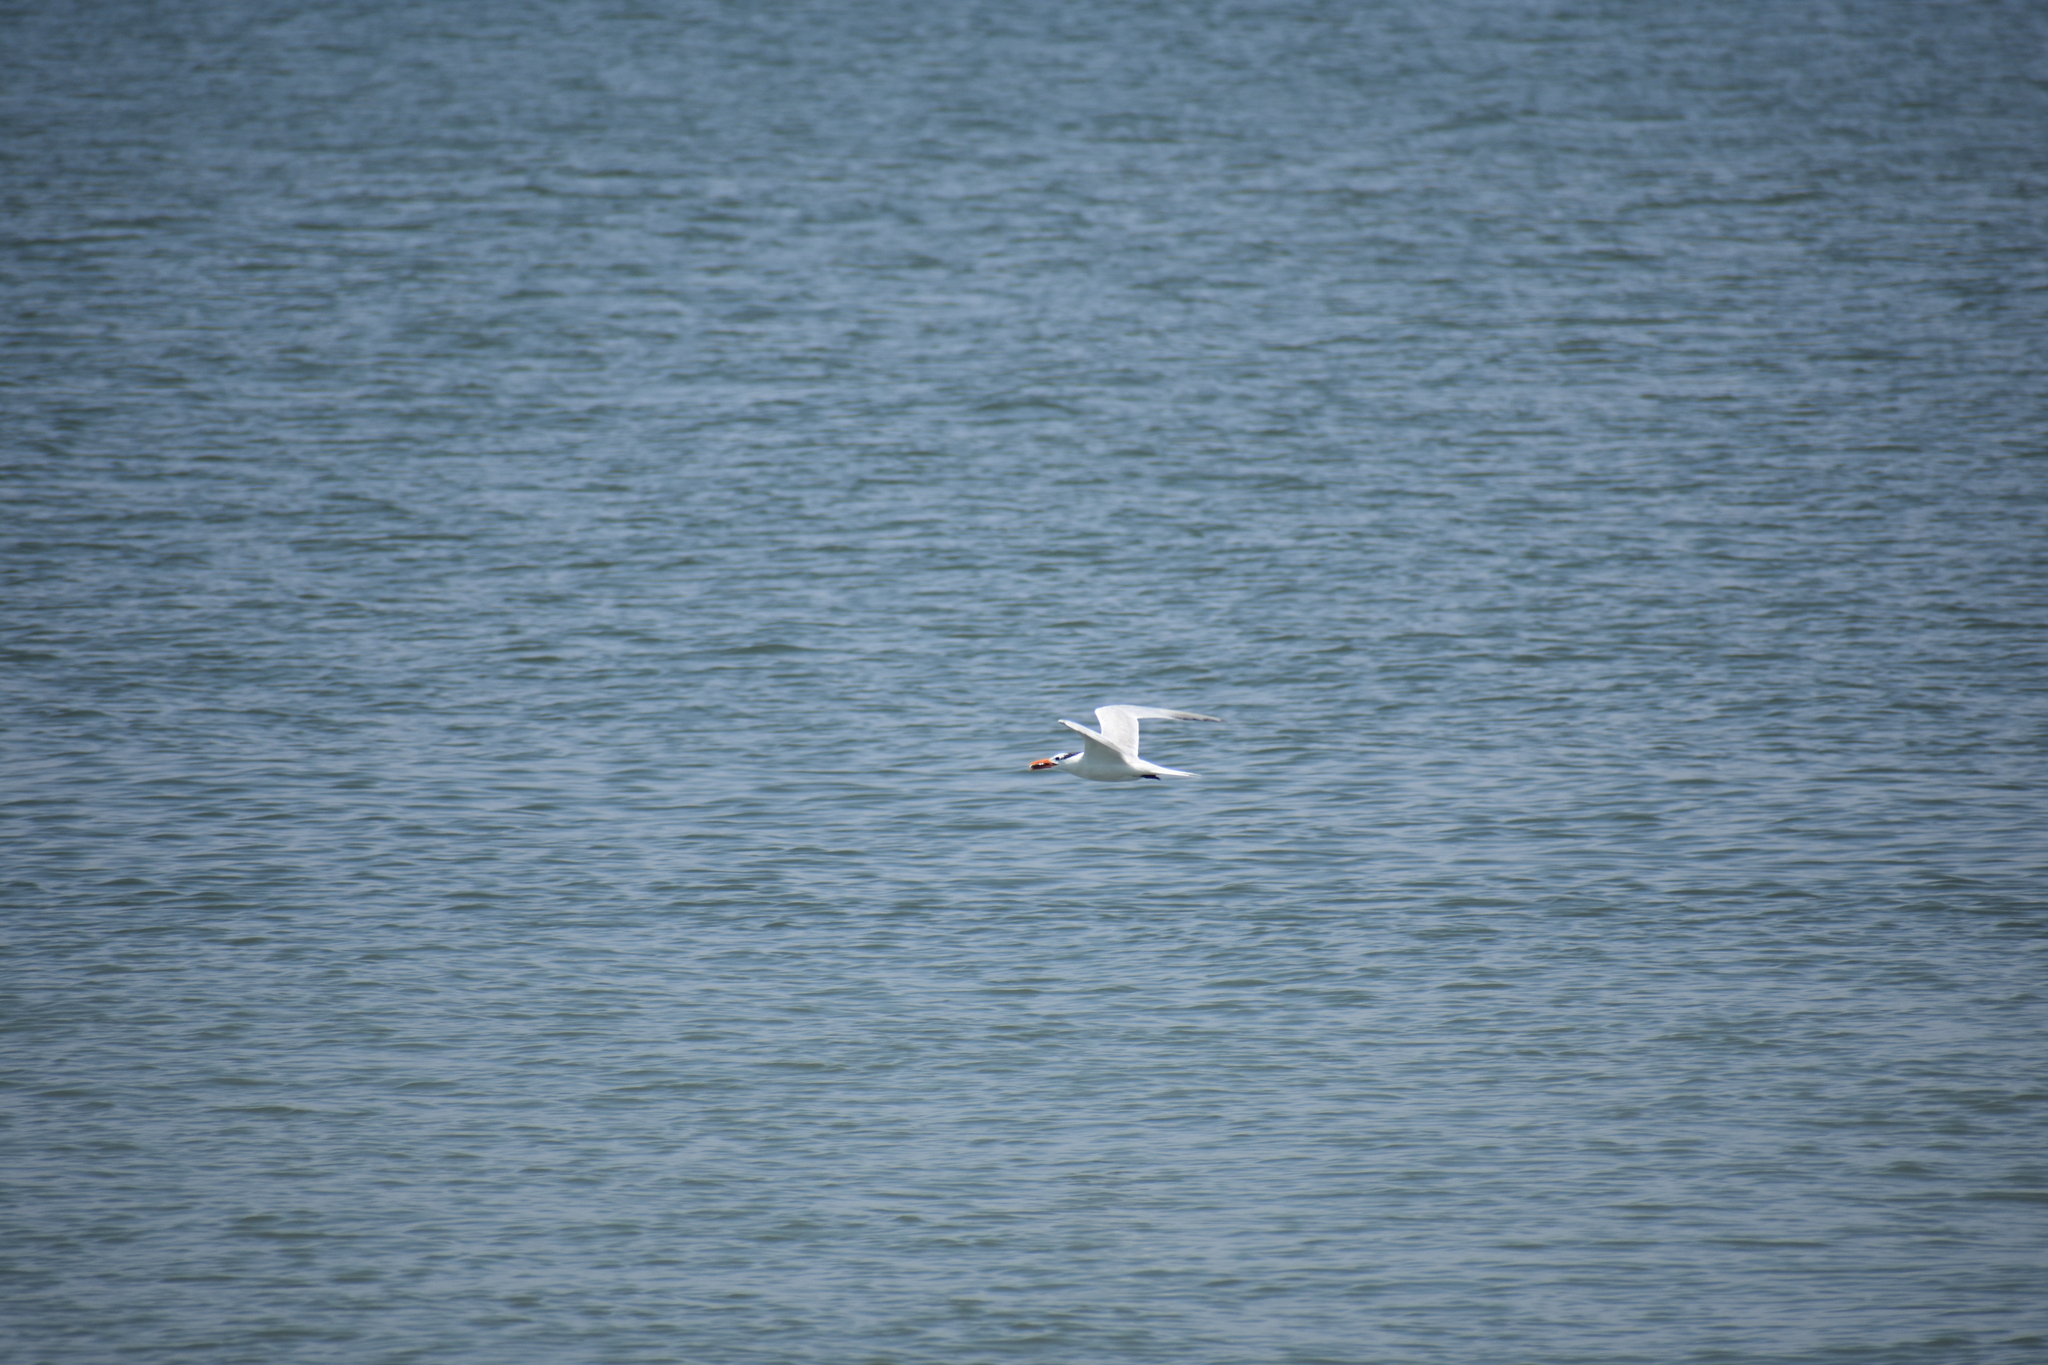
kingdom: Animalia
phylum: Chordata
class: Aves
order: Charadriiformes
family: Laridae
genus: Thalasseus
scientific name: Thalasseus maximus
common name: Royal tern
